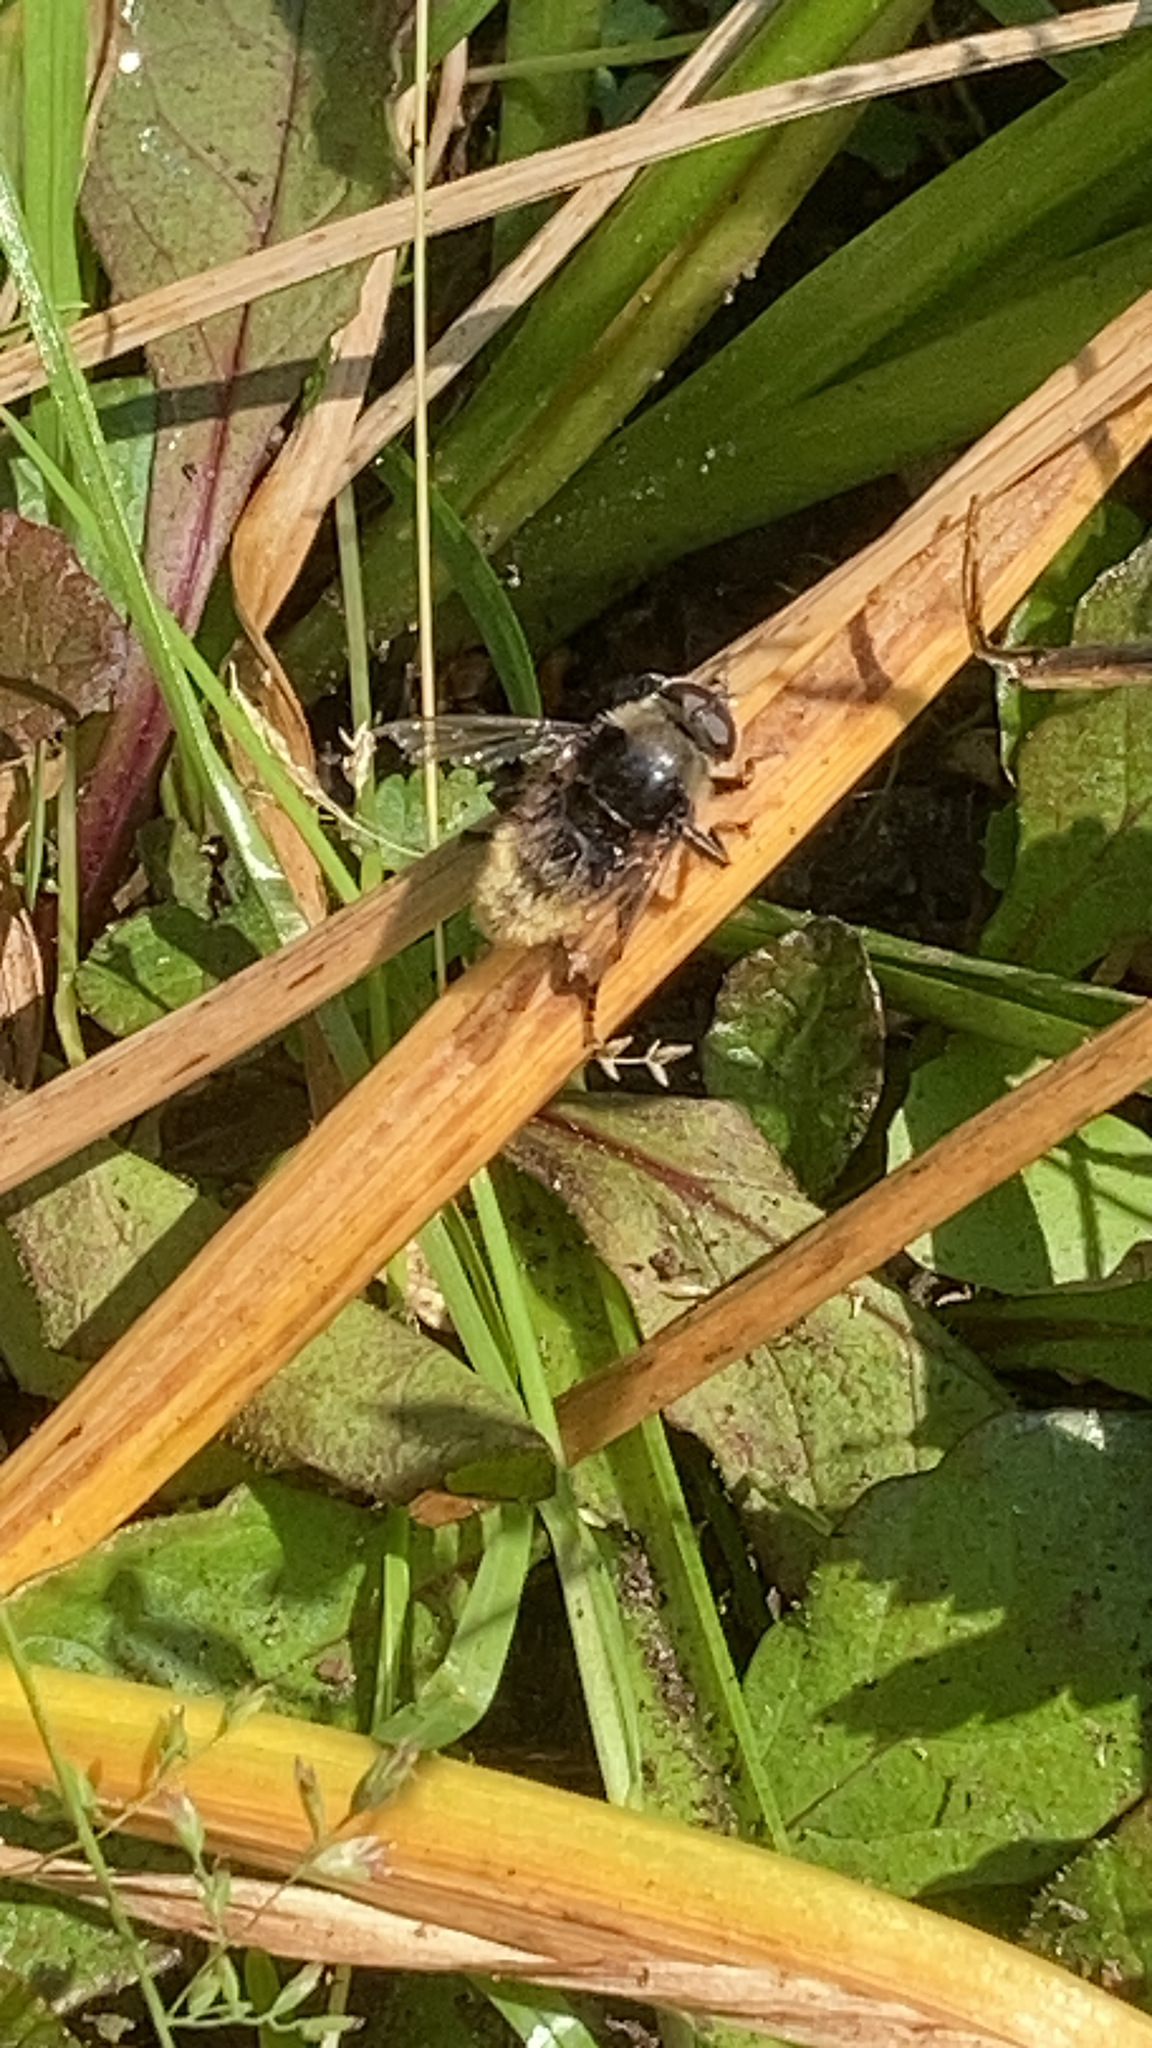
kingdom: Animalia
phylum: Arthropoda
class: Insecta
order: Diptera
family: Syrphidae
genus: Merodon
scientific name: Merodon equestris
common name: Greater bulb-fly
